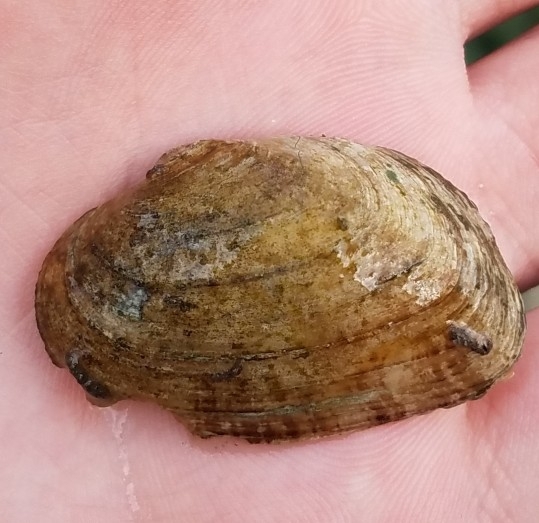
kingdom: Animalia
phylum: Mollusca
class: Bivalvia
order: Unionida
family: Unionidae
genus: Alasmidonta
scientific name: Alasmidonta viridis
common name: Slippershell mussel
